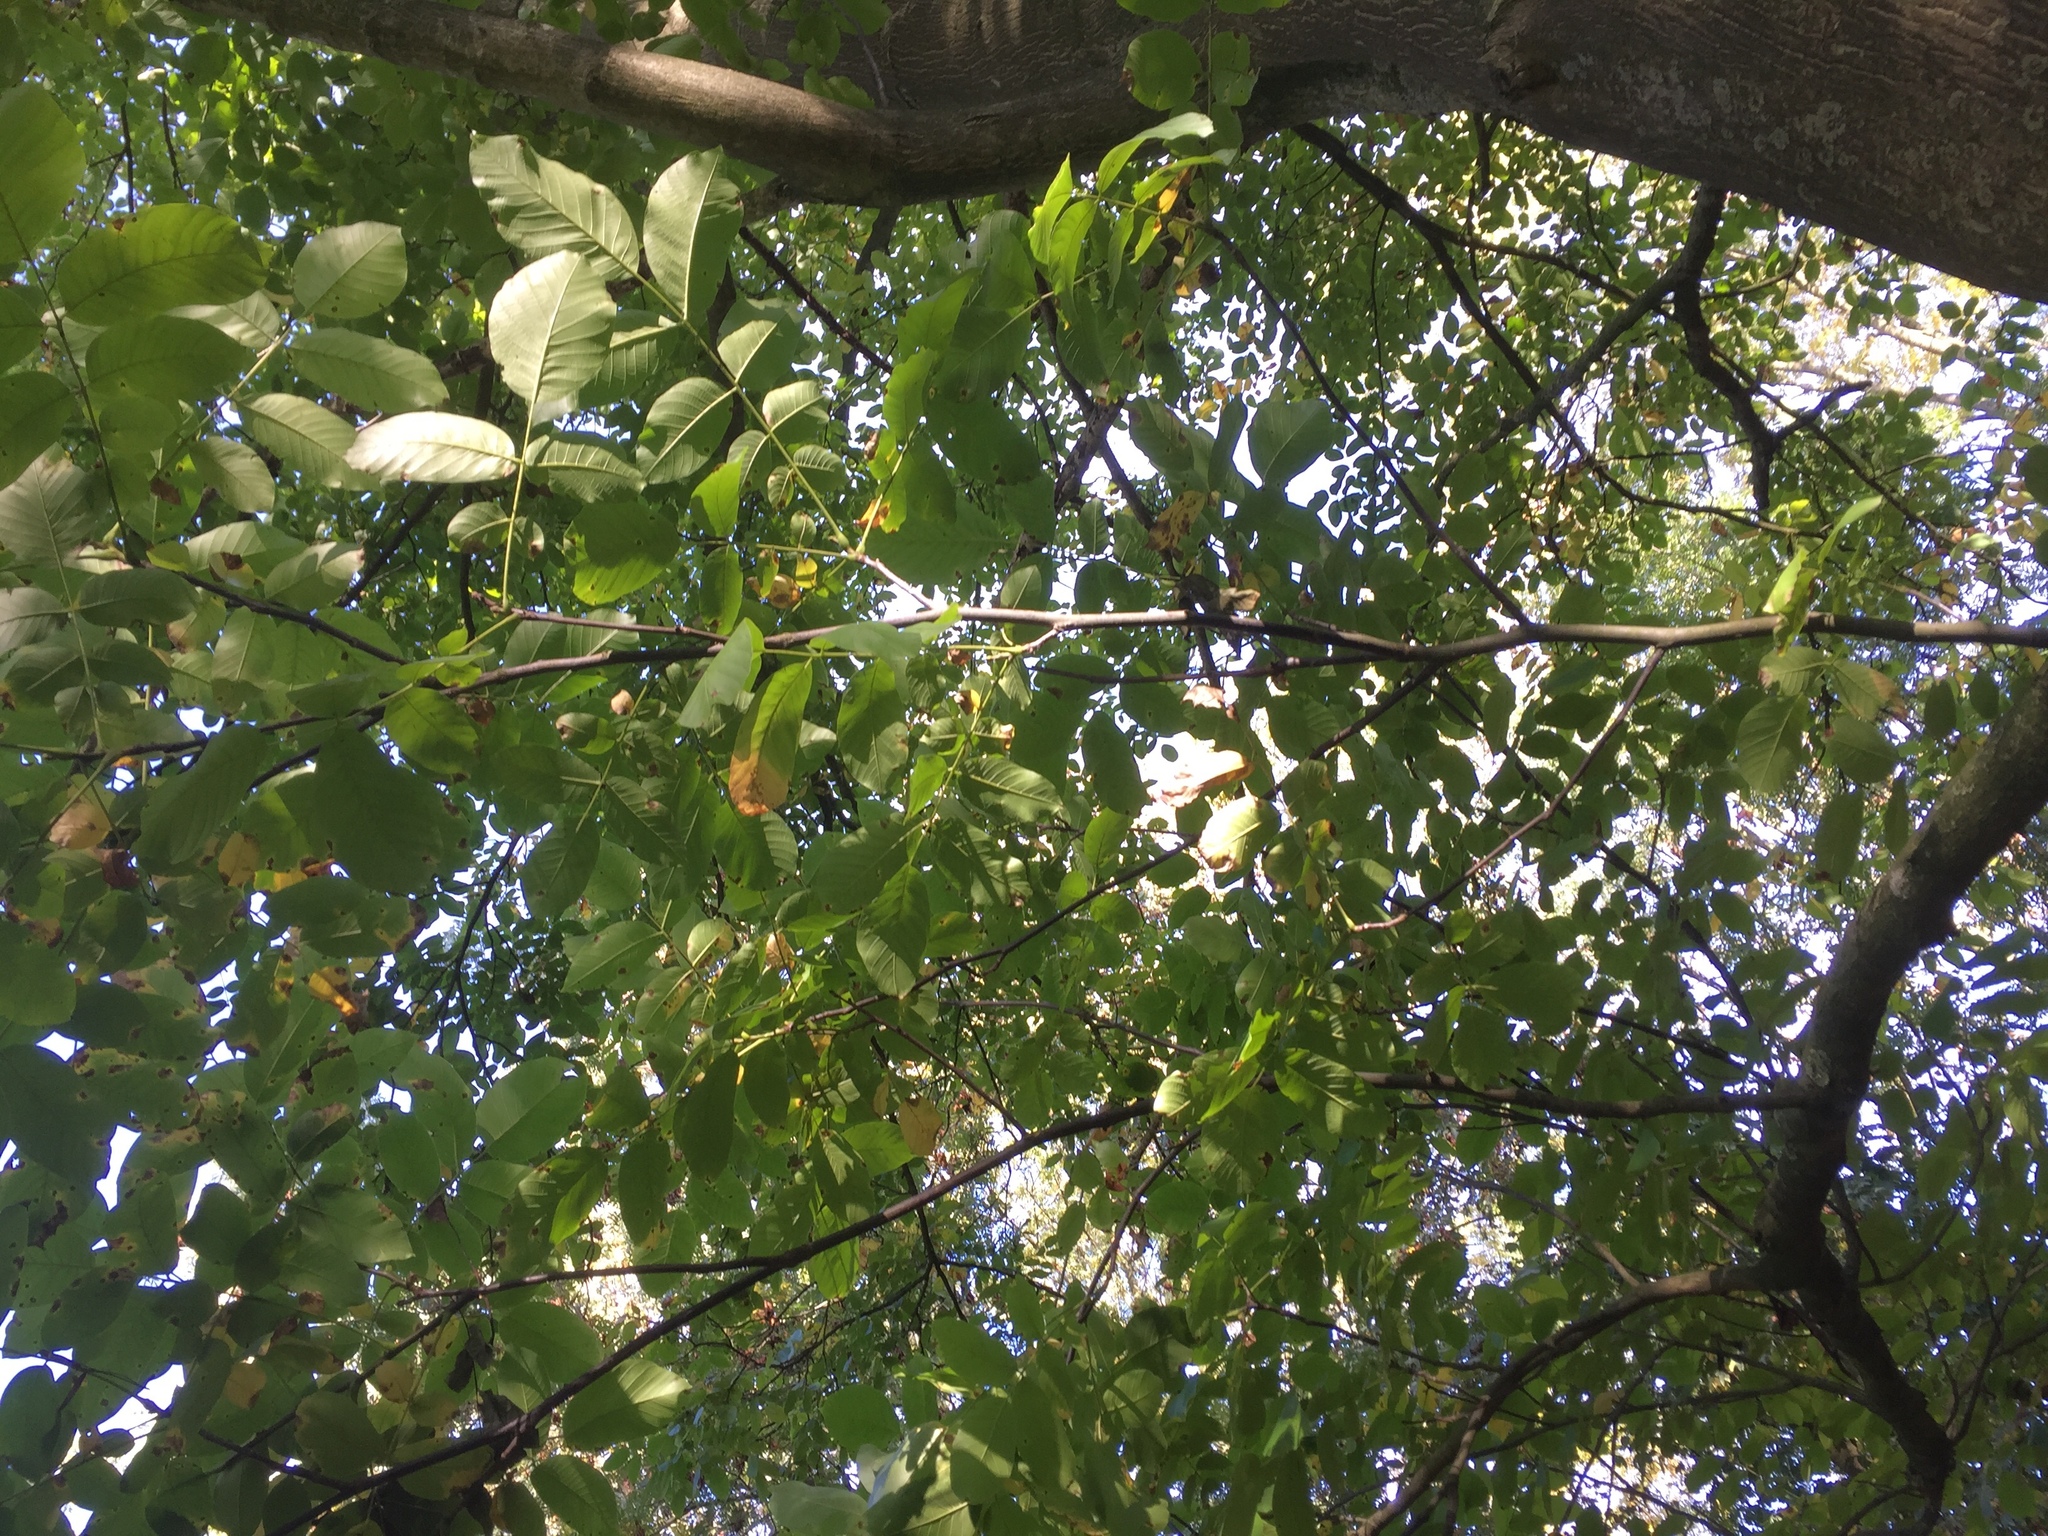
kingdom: Plantae
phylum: Tracheophyta
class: Magnoliopsida
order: Fagales
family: Juglandaceae
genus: Juglans
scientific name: Juglans regia
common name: Walnut
